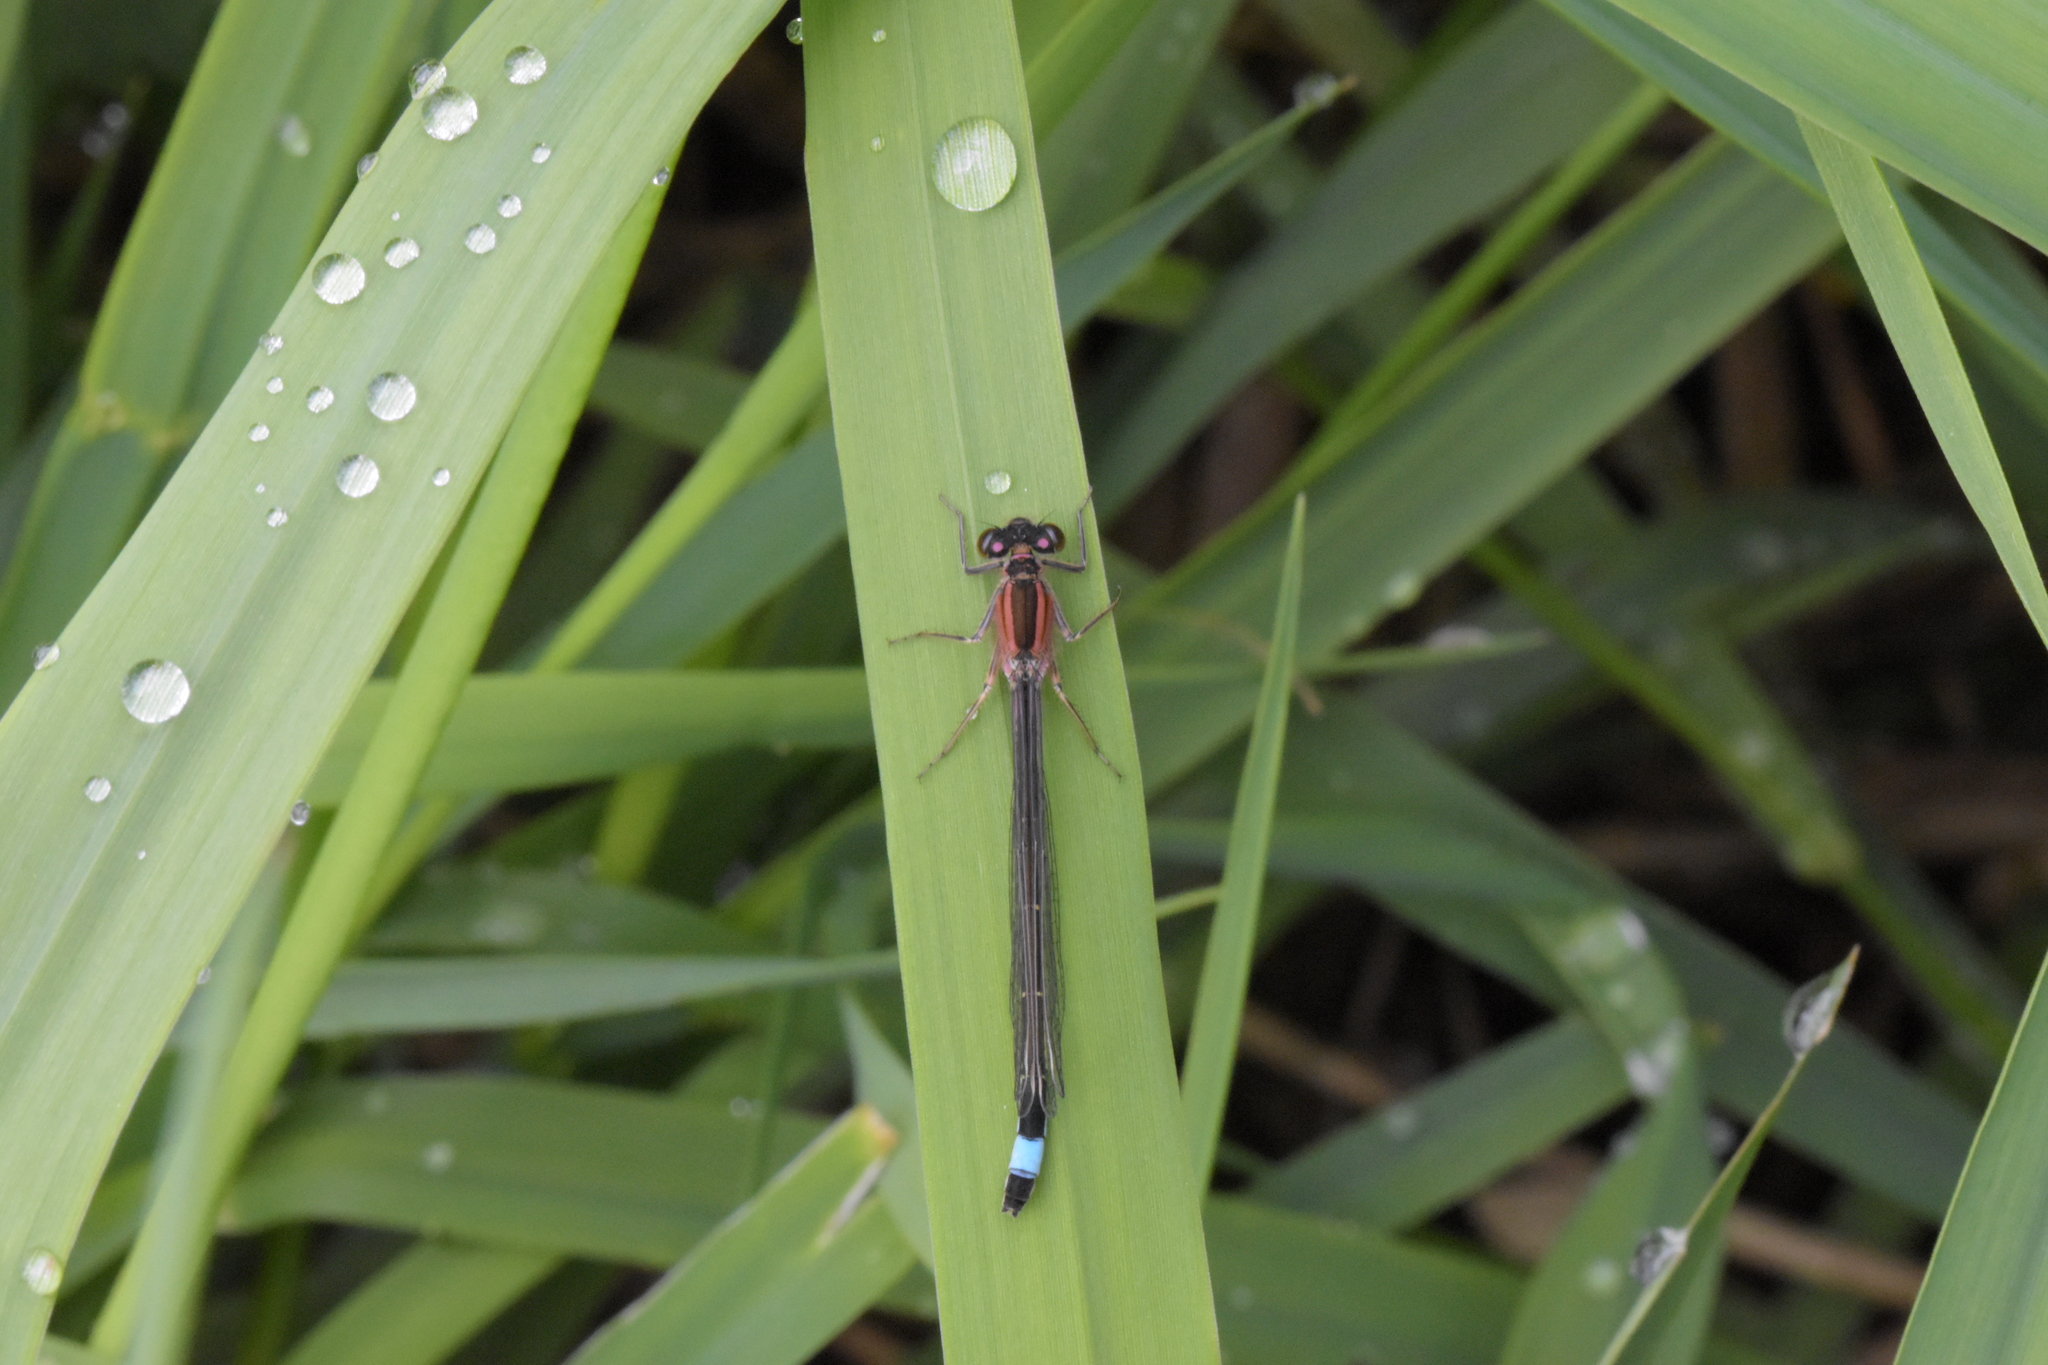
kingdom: Animalia
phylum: Arthropoda
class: Insecta
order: Odonata
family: Coenagrionidae
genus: Ischnura
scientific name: Ischnura elegans
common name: Blue-tailed damselfly
